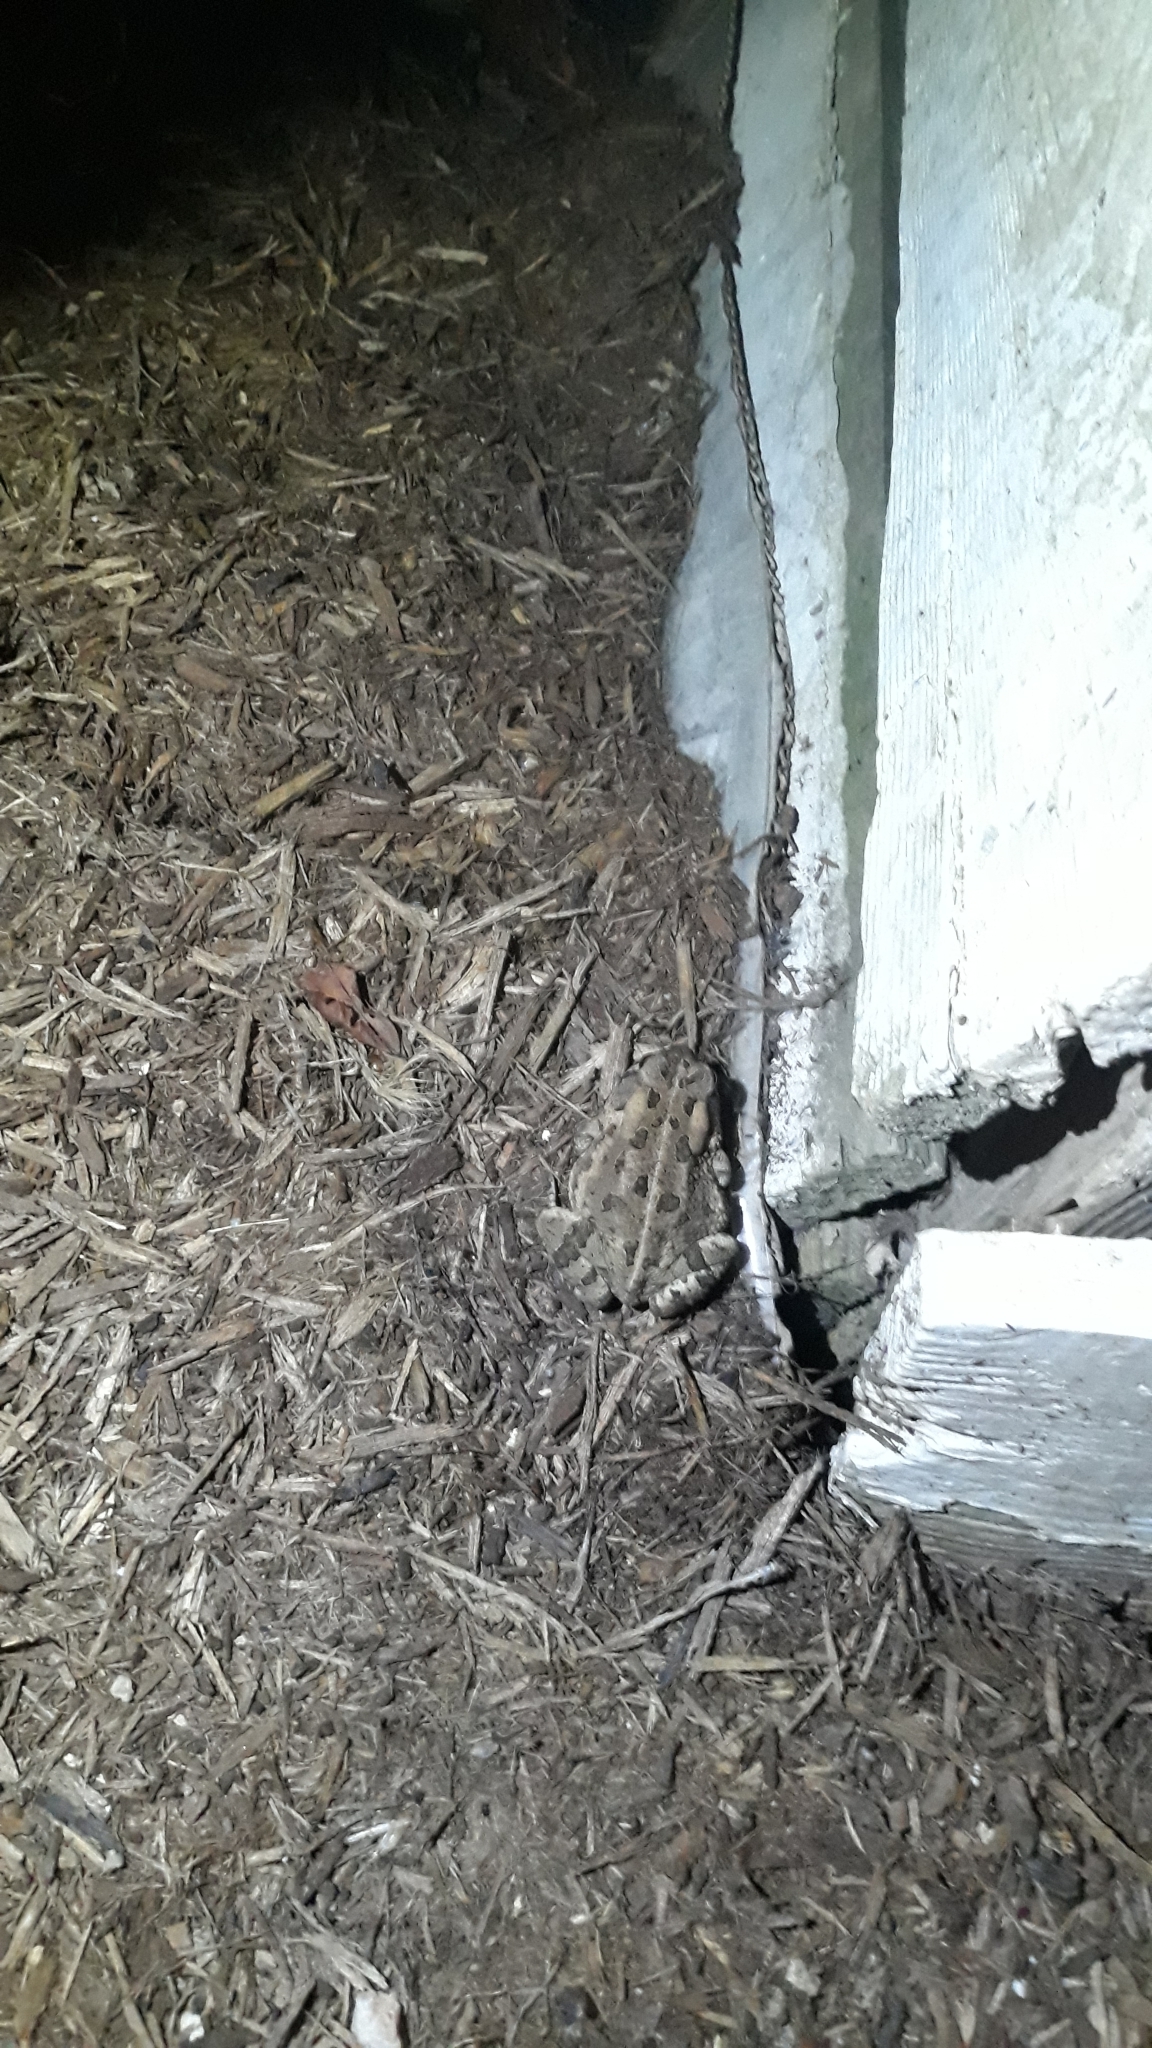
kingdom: Animalia
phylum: Chordata
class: Amphibia
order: Anura
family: Bufonidae
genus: Anaxyrus
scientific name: Anaxyrus fowleri
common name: Fowler's toad
